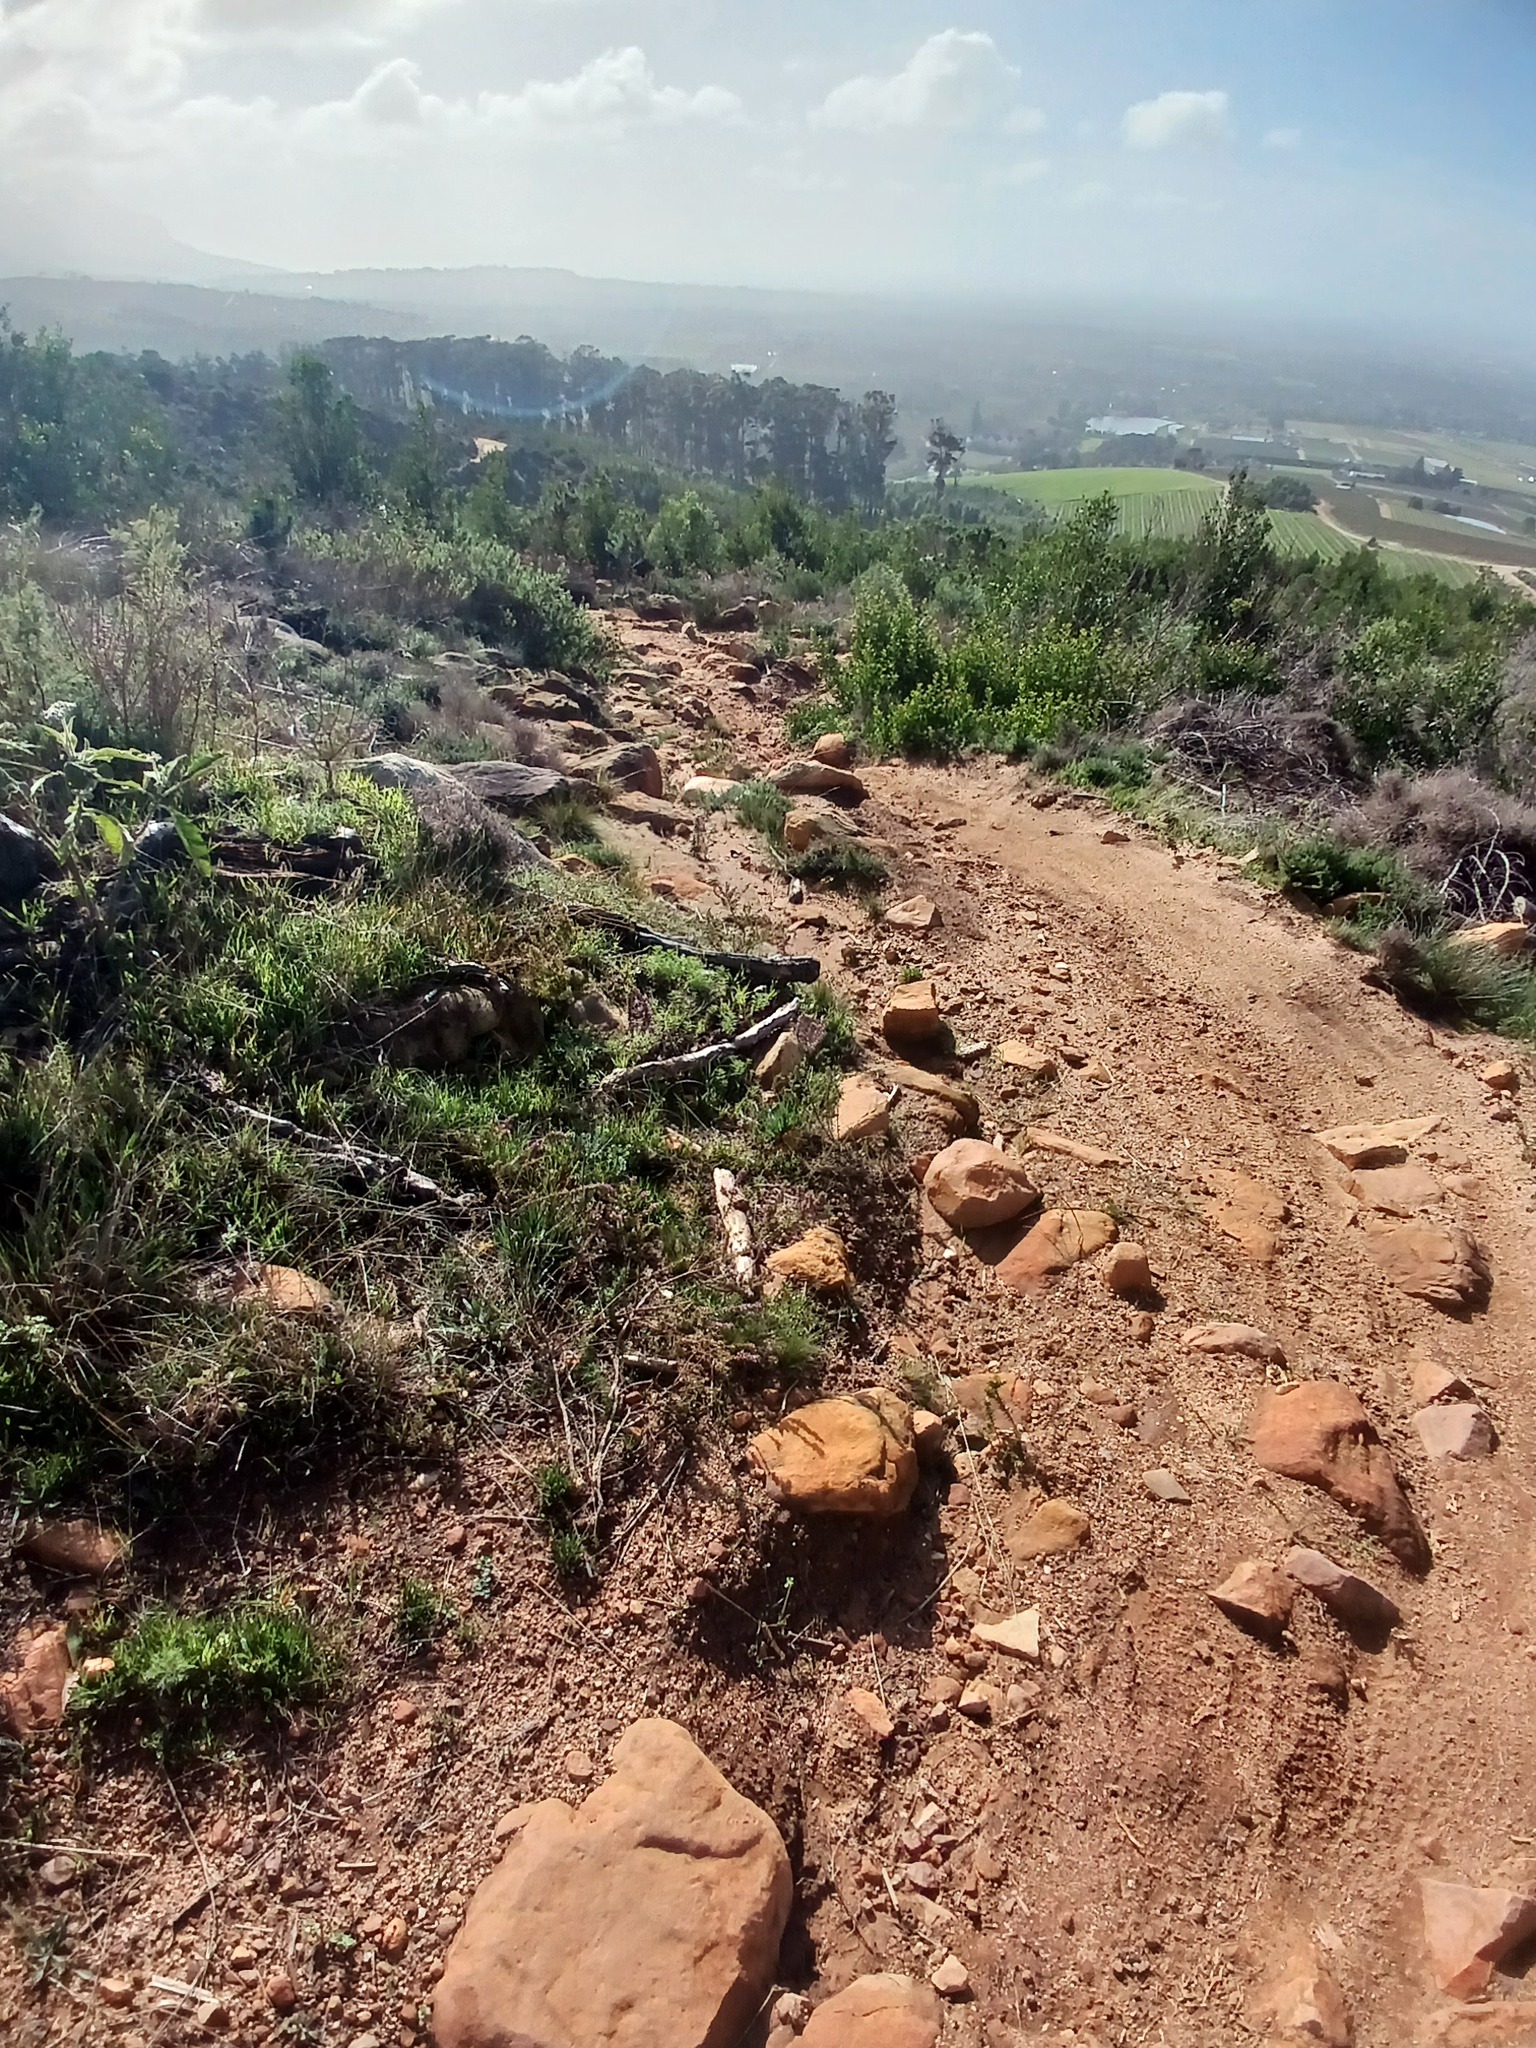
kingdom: Plantae
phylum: Tracheophyta
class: Magnoliopsida
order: Fabales
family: Fabaceae
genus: Acacia
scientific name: Acacia melanoxylon
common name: Blackwood
